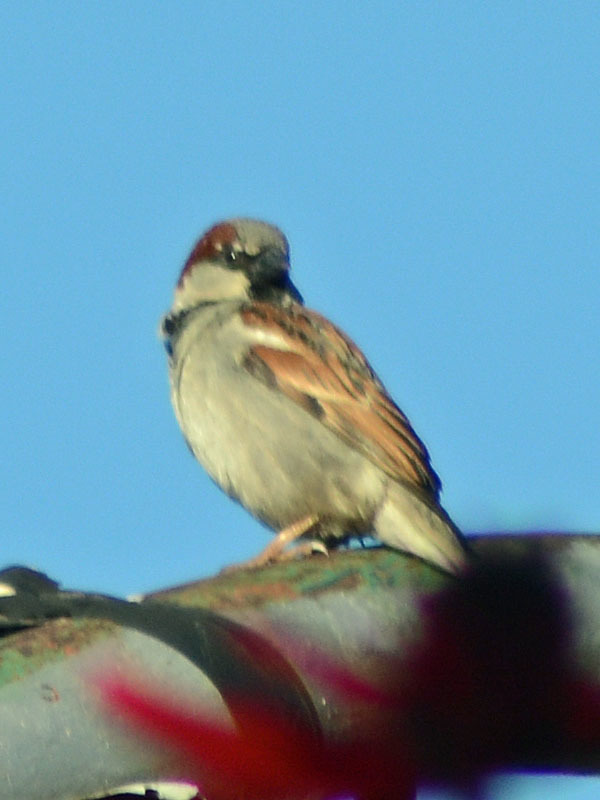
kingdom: Animalia
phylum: Chordata
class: Aves
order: Passeriformes
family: Passeridae
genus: Passer
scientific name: Passer domesticus
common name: House sparrow
